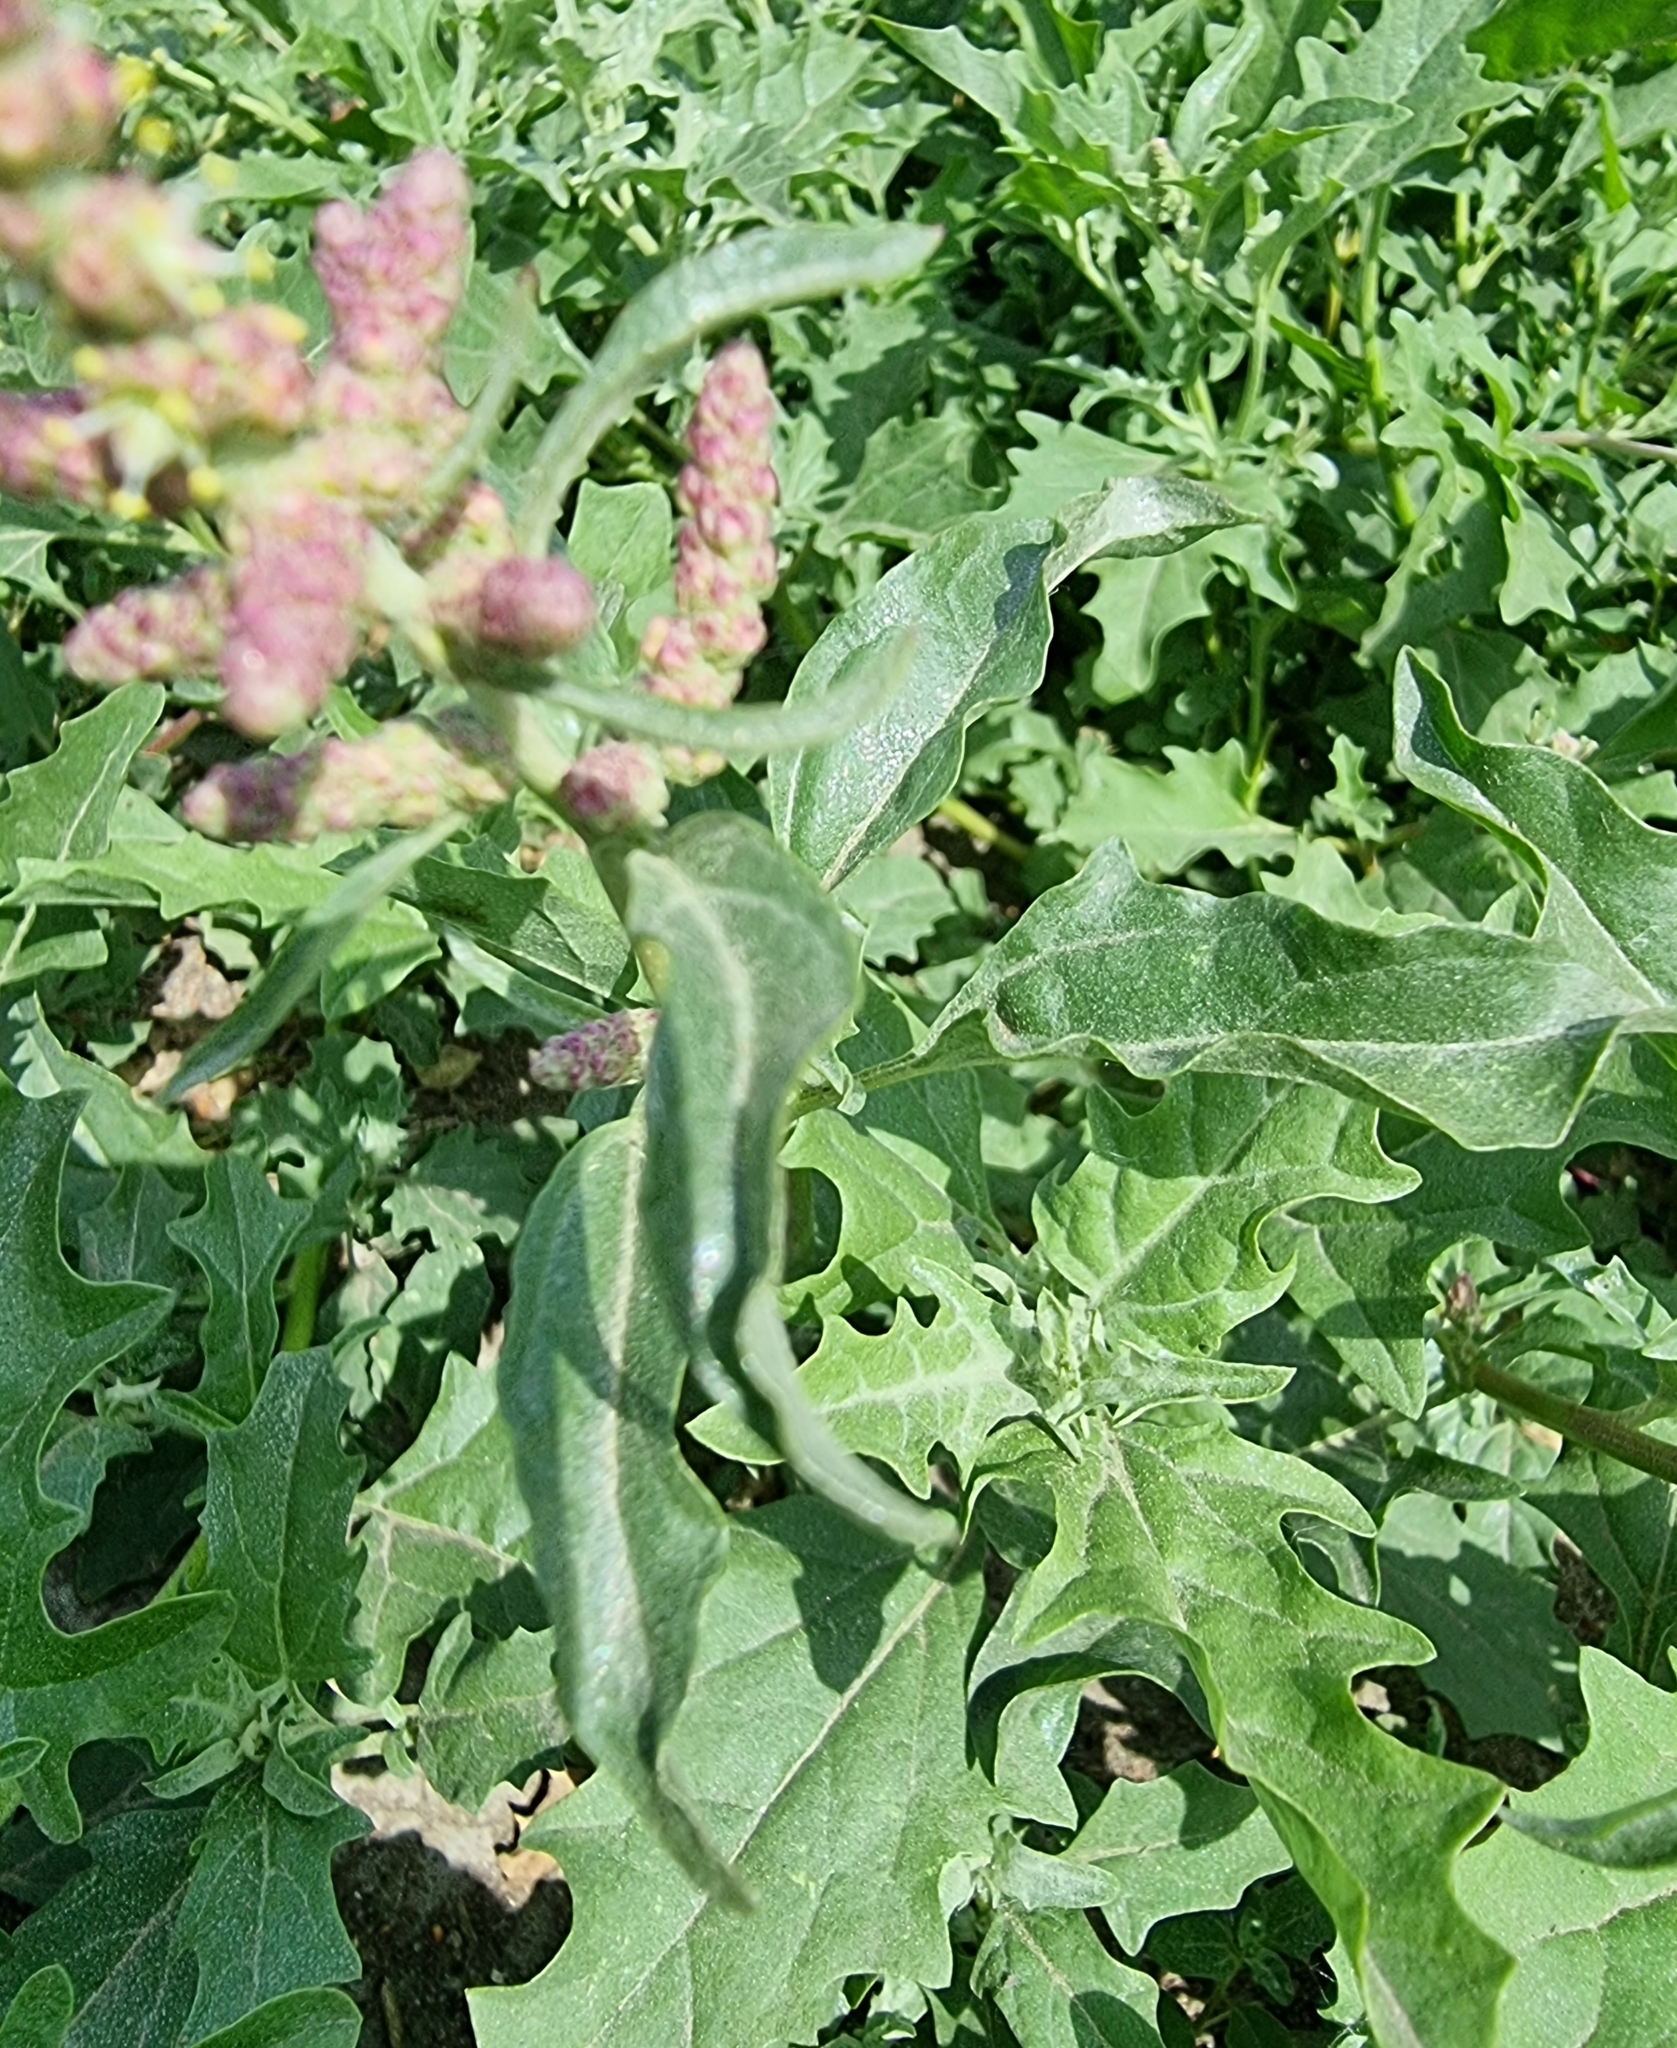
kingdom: Plantae
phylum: Tracheophyta
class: Magnoliopsida
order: Caryophyllales
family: Amaranthaceae
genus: Atriplex
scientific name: Atriplex tatarica
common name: Tatarian orache
